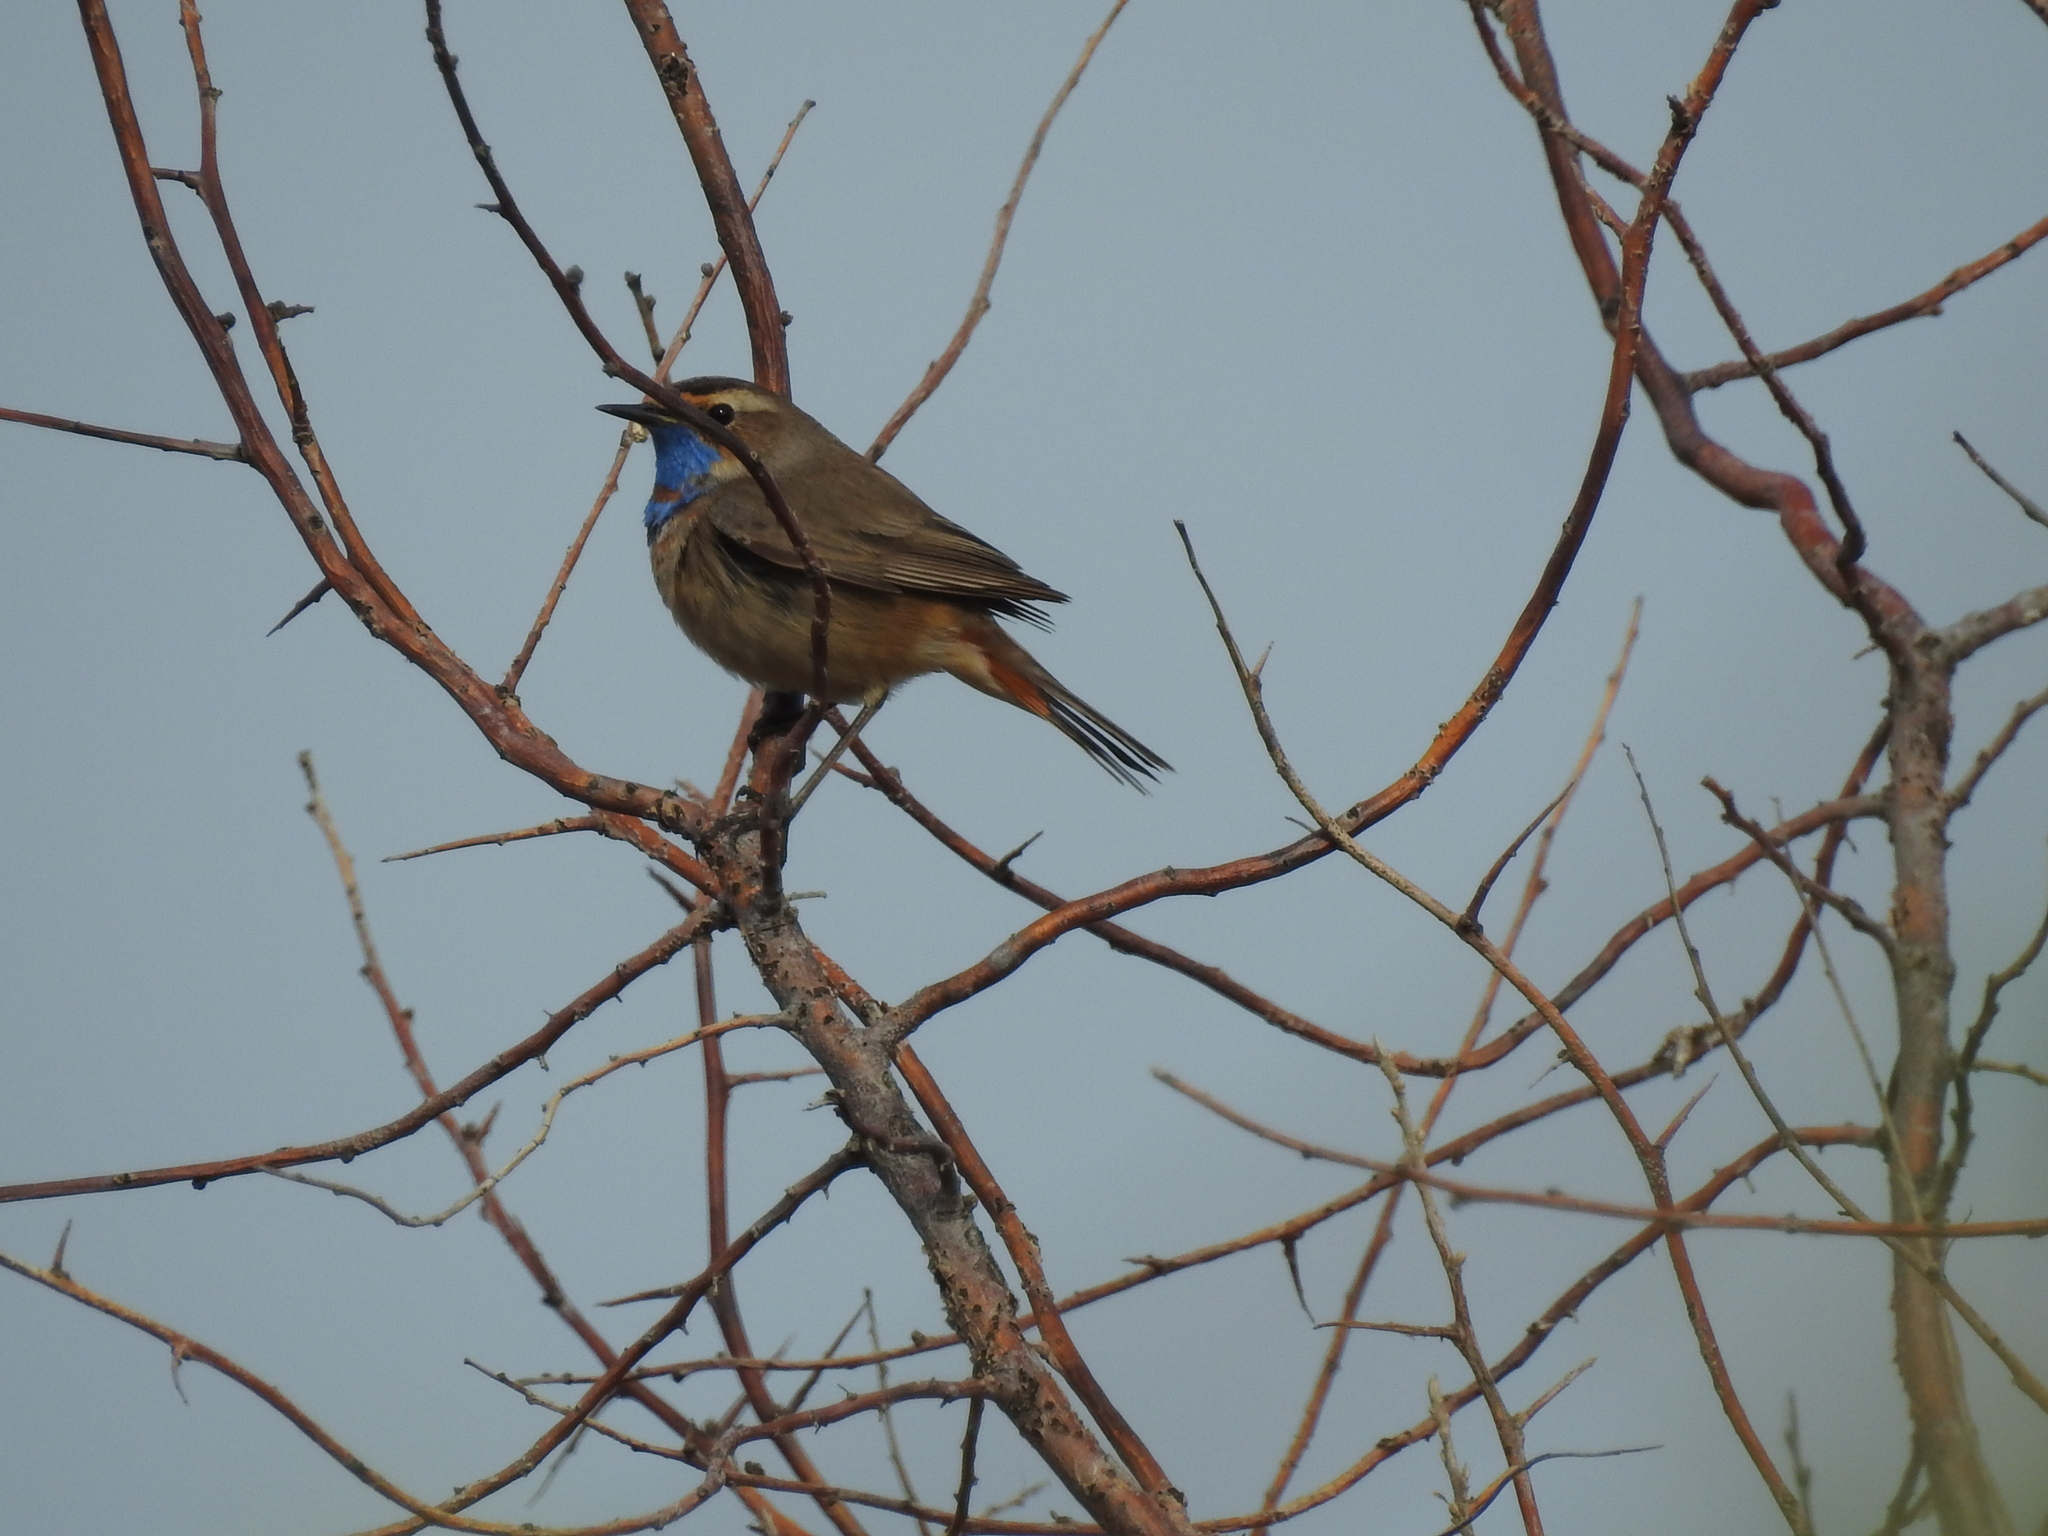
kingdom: Animalia
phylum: Chordata
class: Aves
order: Passeriformes
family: Muscicapidae
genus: Luscinia
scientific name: Luscinia svecica
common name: Bluethroat
